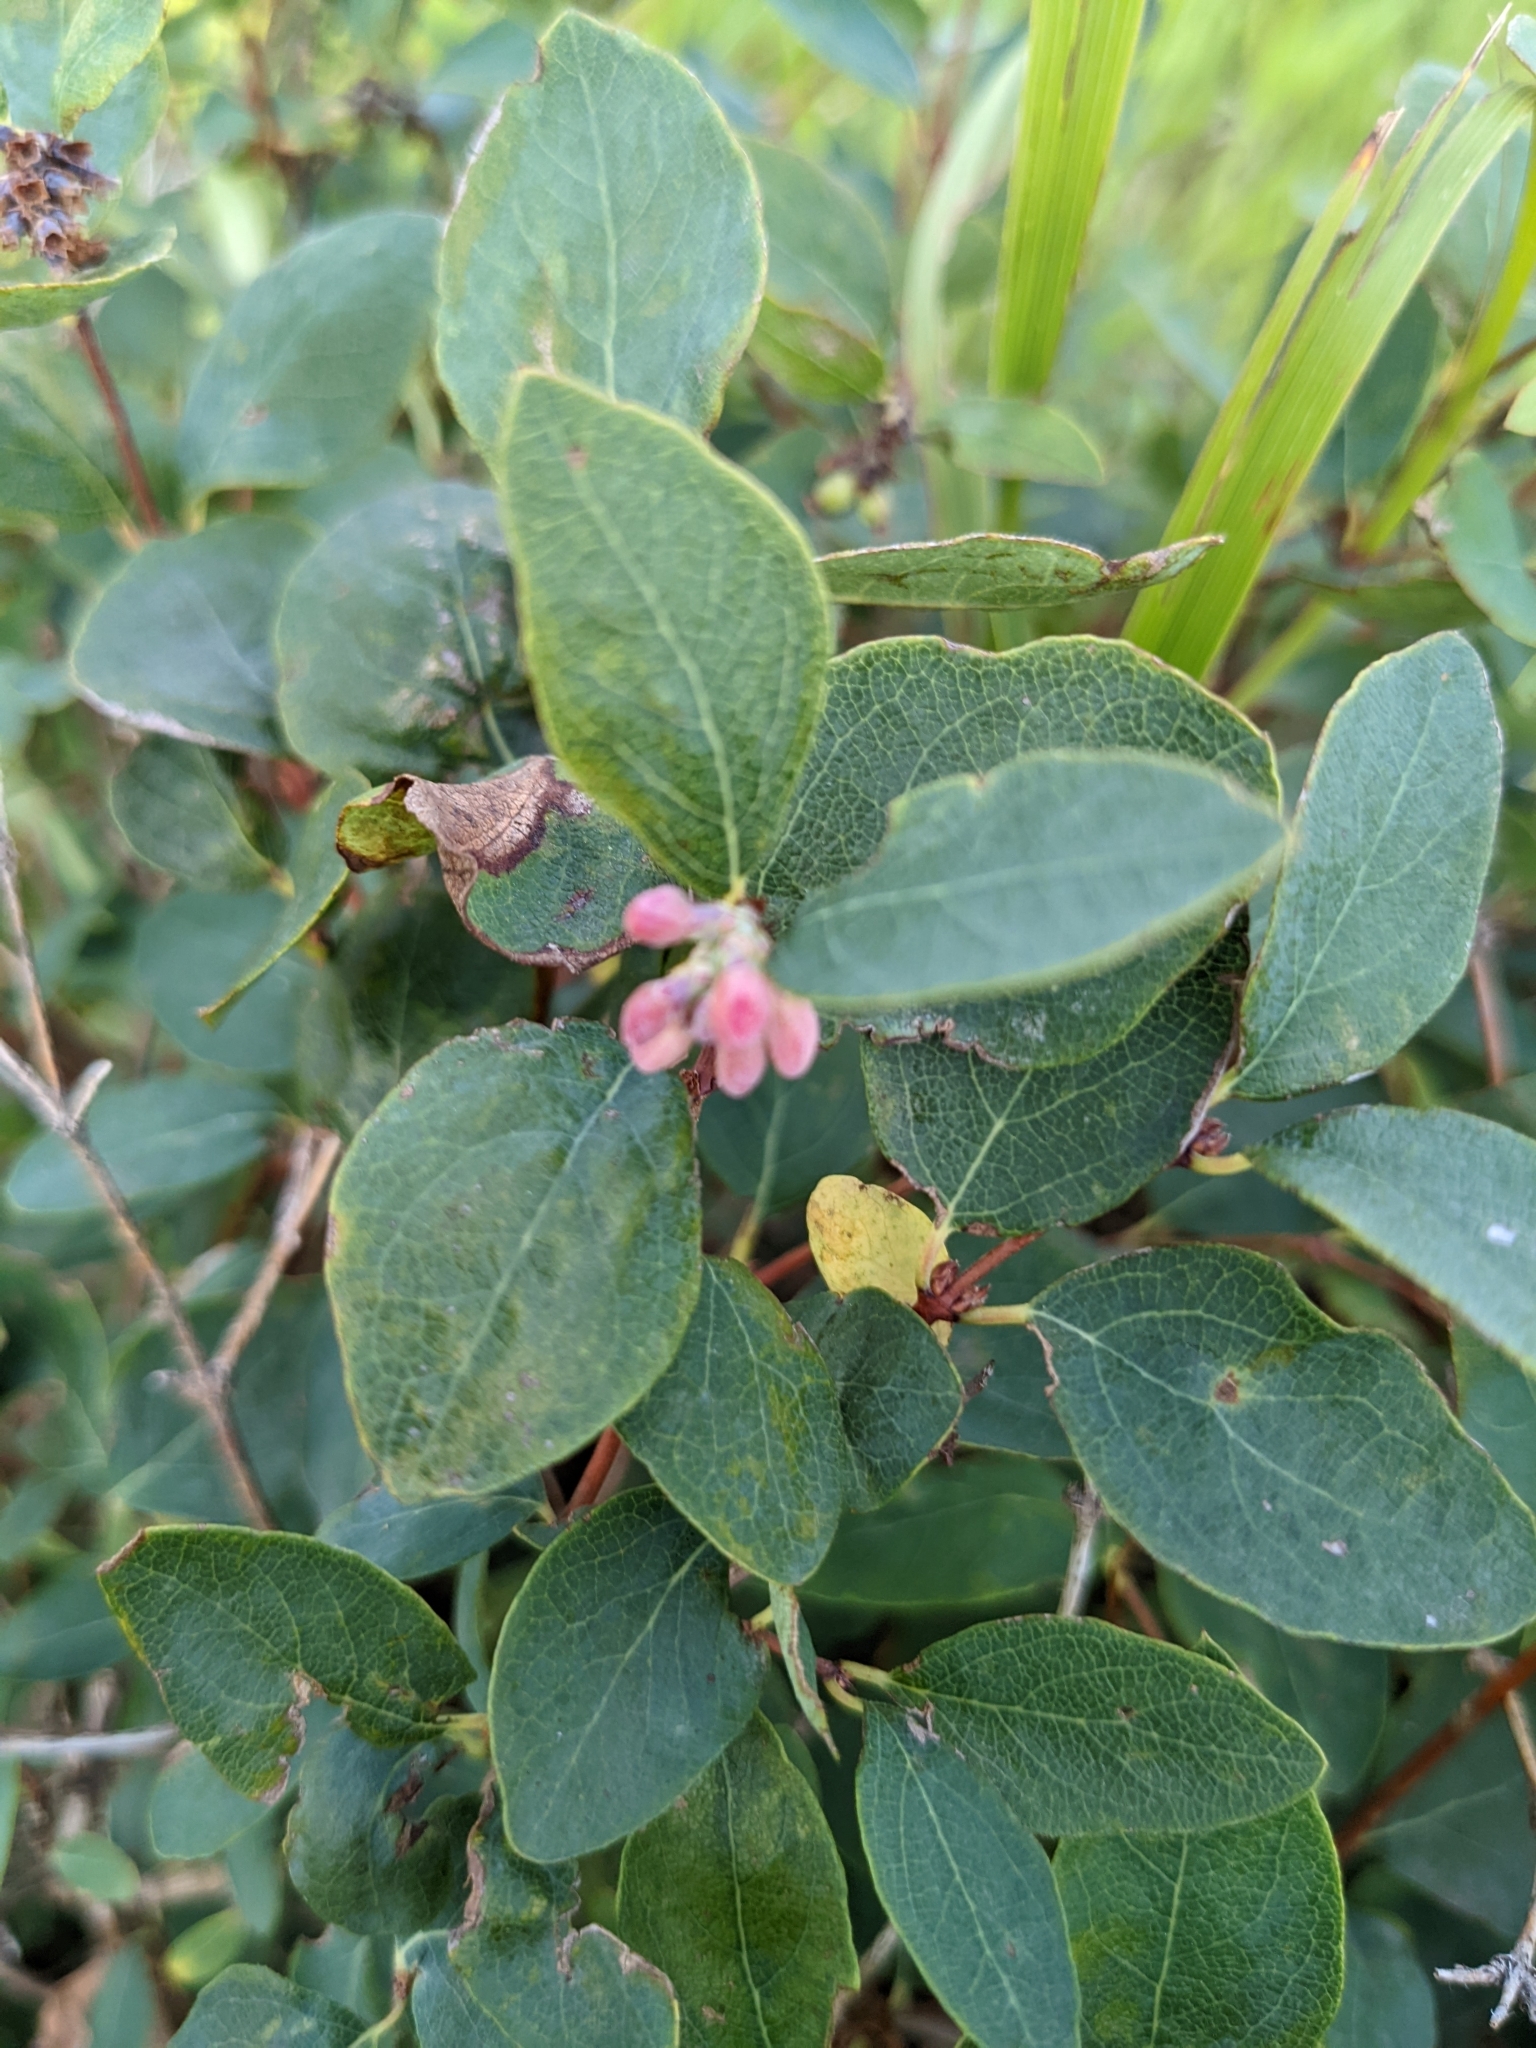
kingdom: Plantae
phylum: Tracheophyta
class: Magnoliopsida
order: Dipsacales
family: Caprifoliaceae
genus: Symphoricarpos
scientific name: Symphoricarpos occidentalis
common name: Wolfberry
